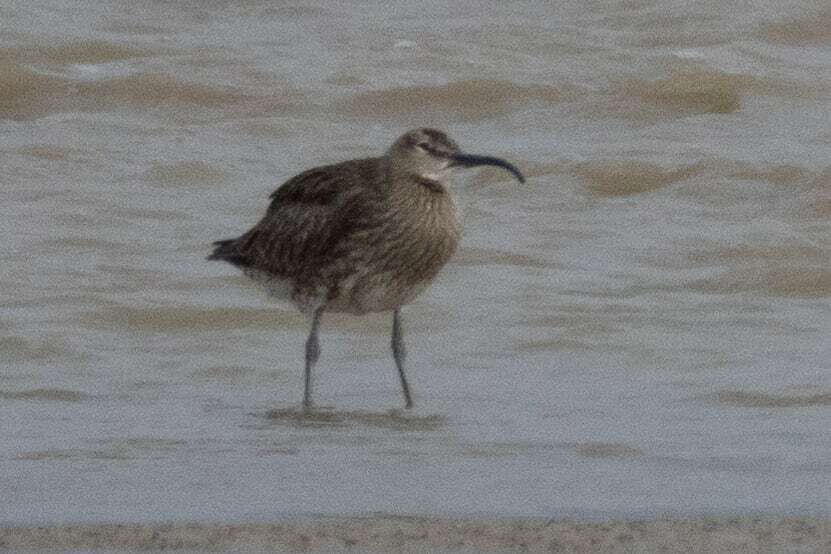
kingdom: Animalia
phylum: Chordata
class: Aves
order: Charadriiformes
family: Scolopacidae
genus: Numenius
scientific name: Numenius phaeopus
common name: Whimbrel
